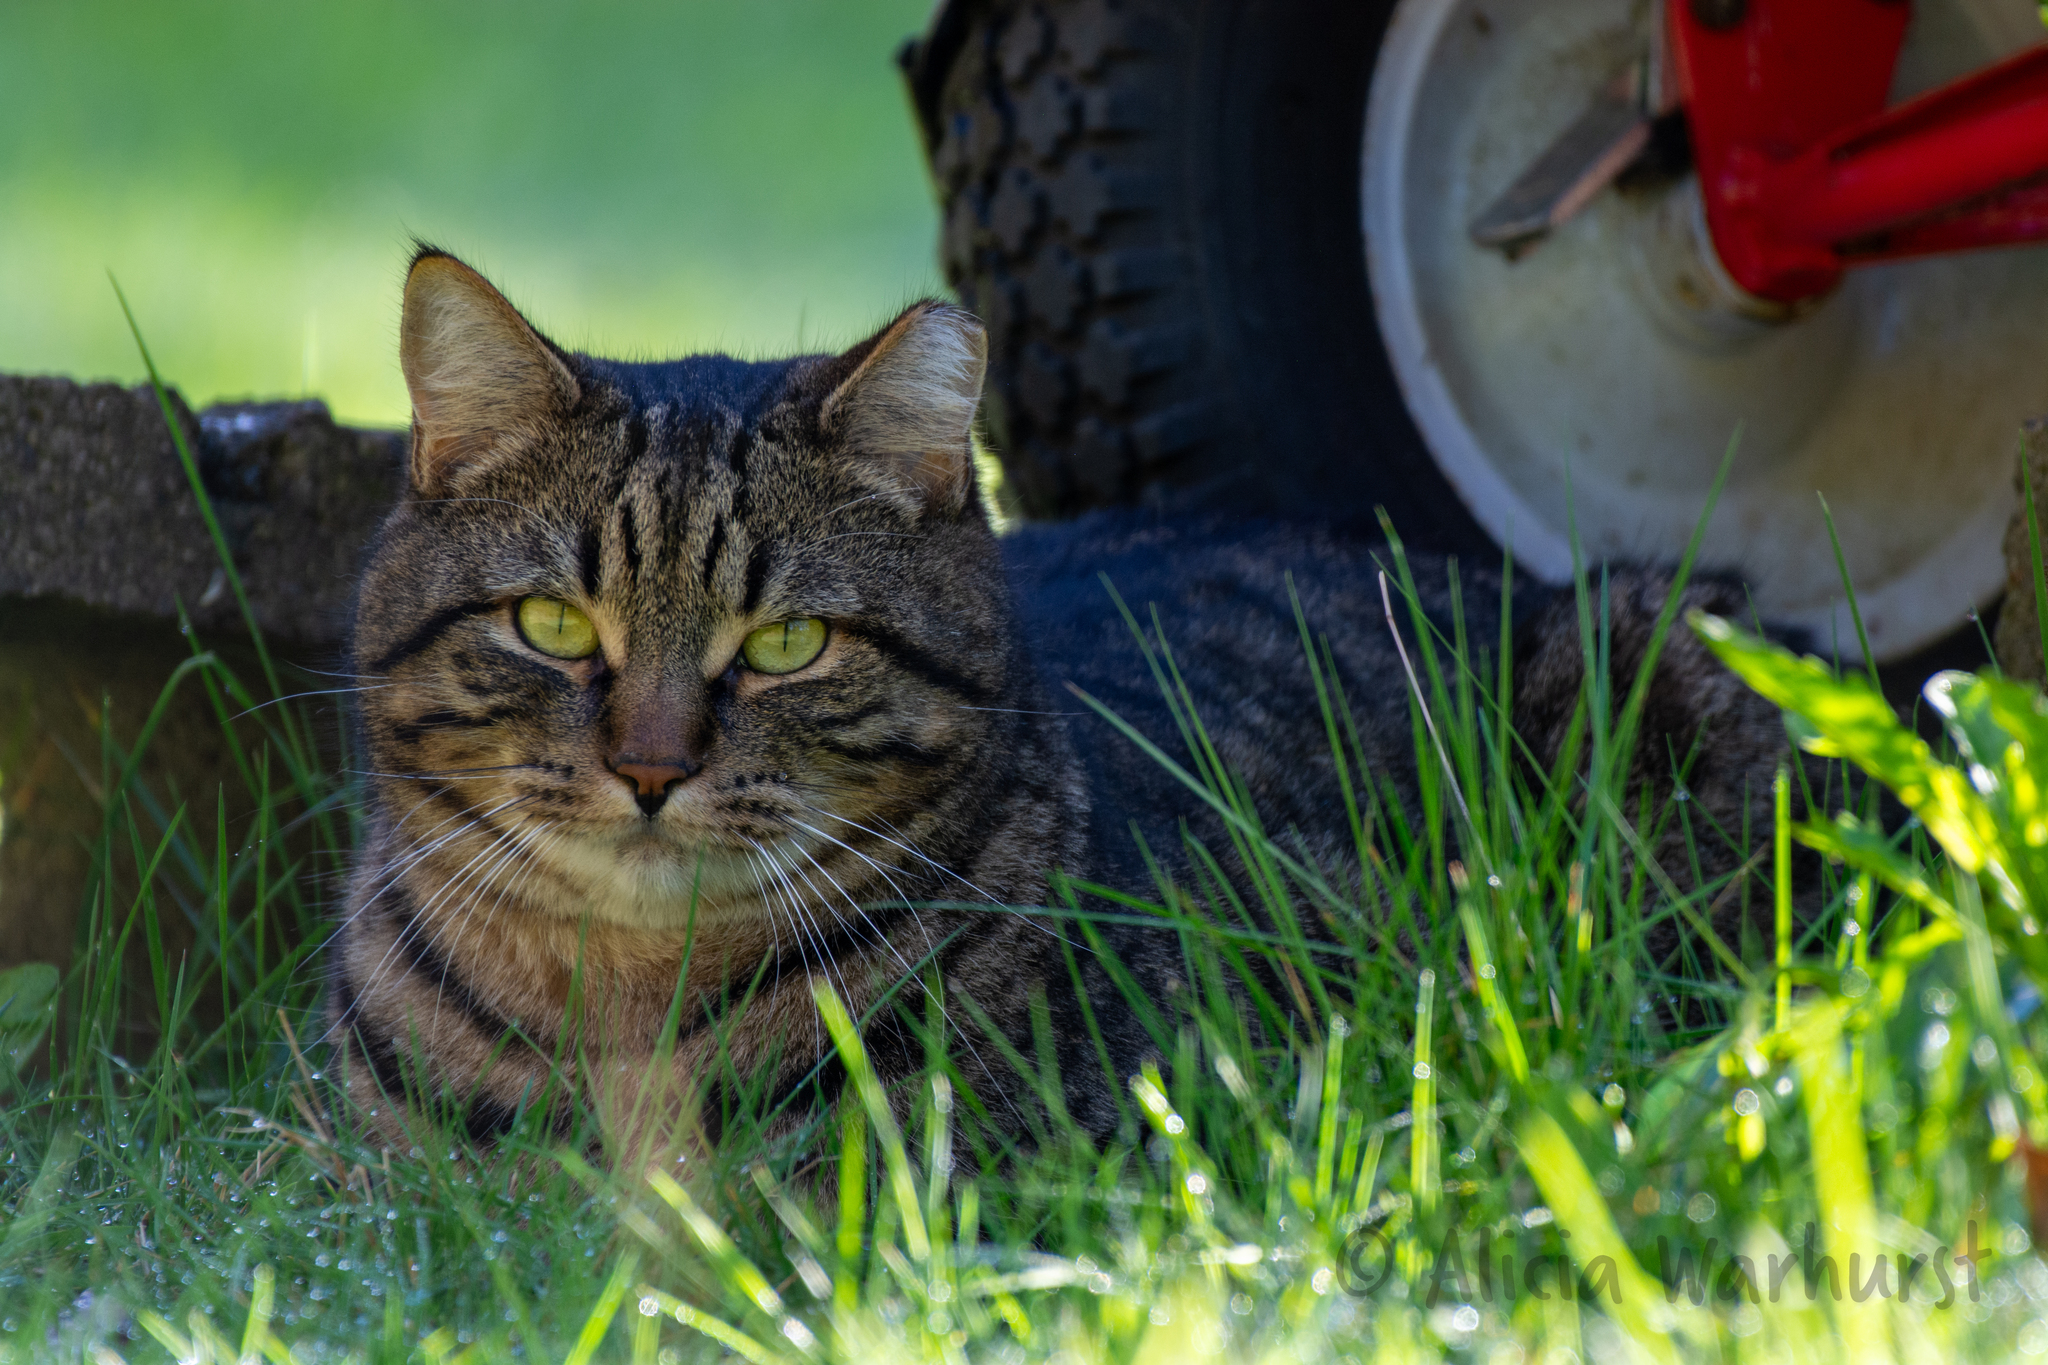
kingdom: Animalia
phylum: Chordata
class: Mammalia
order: Carnivora
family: Felidae
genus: Felis
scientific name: Felis catus
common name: Domestic cat
